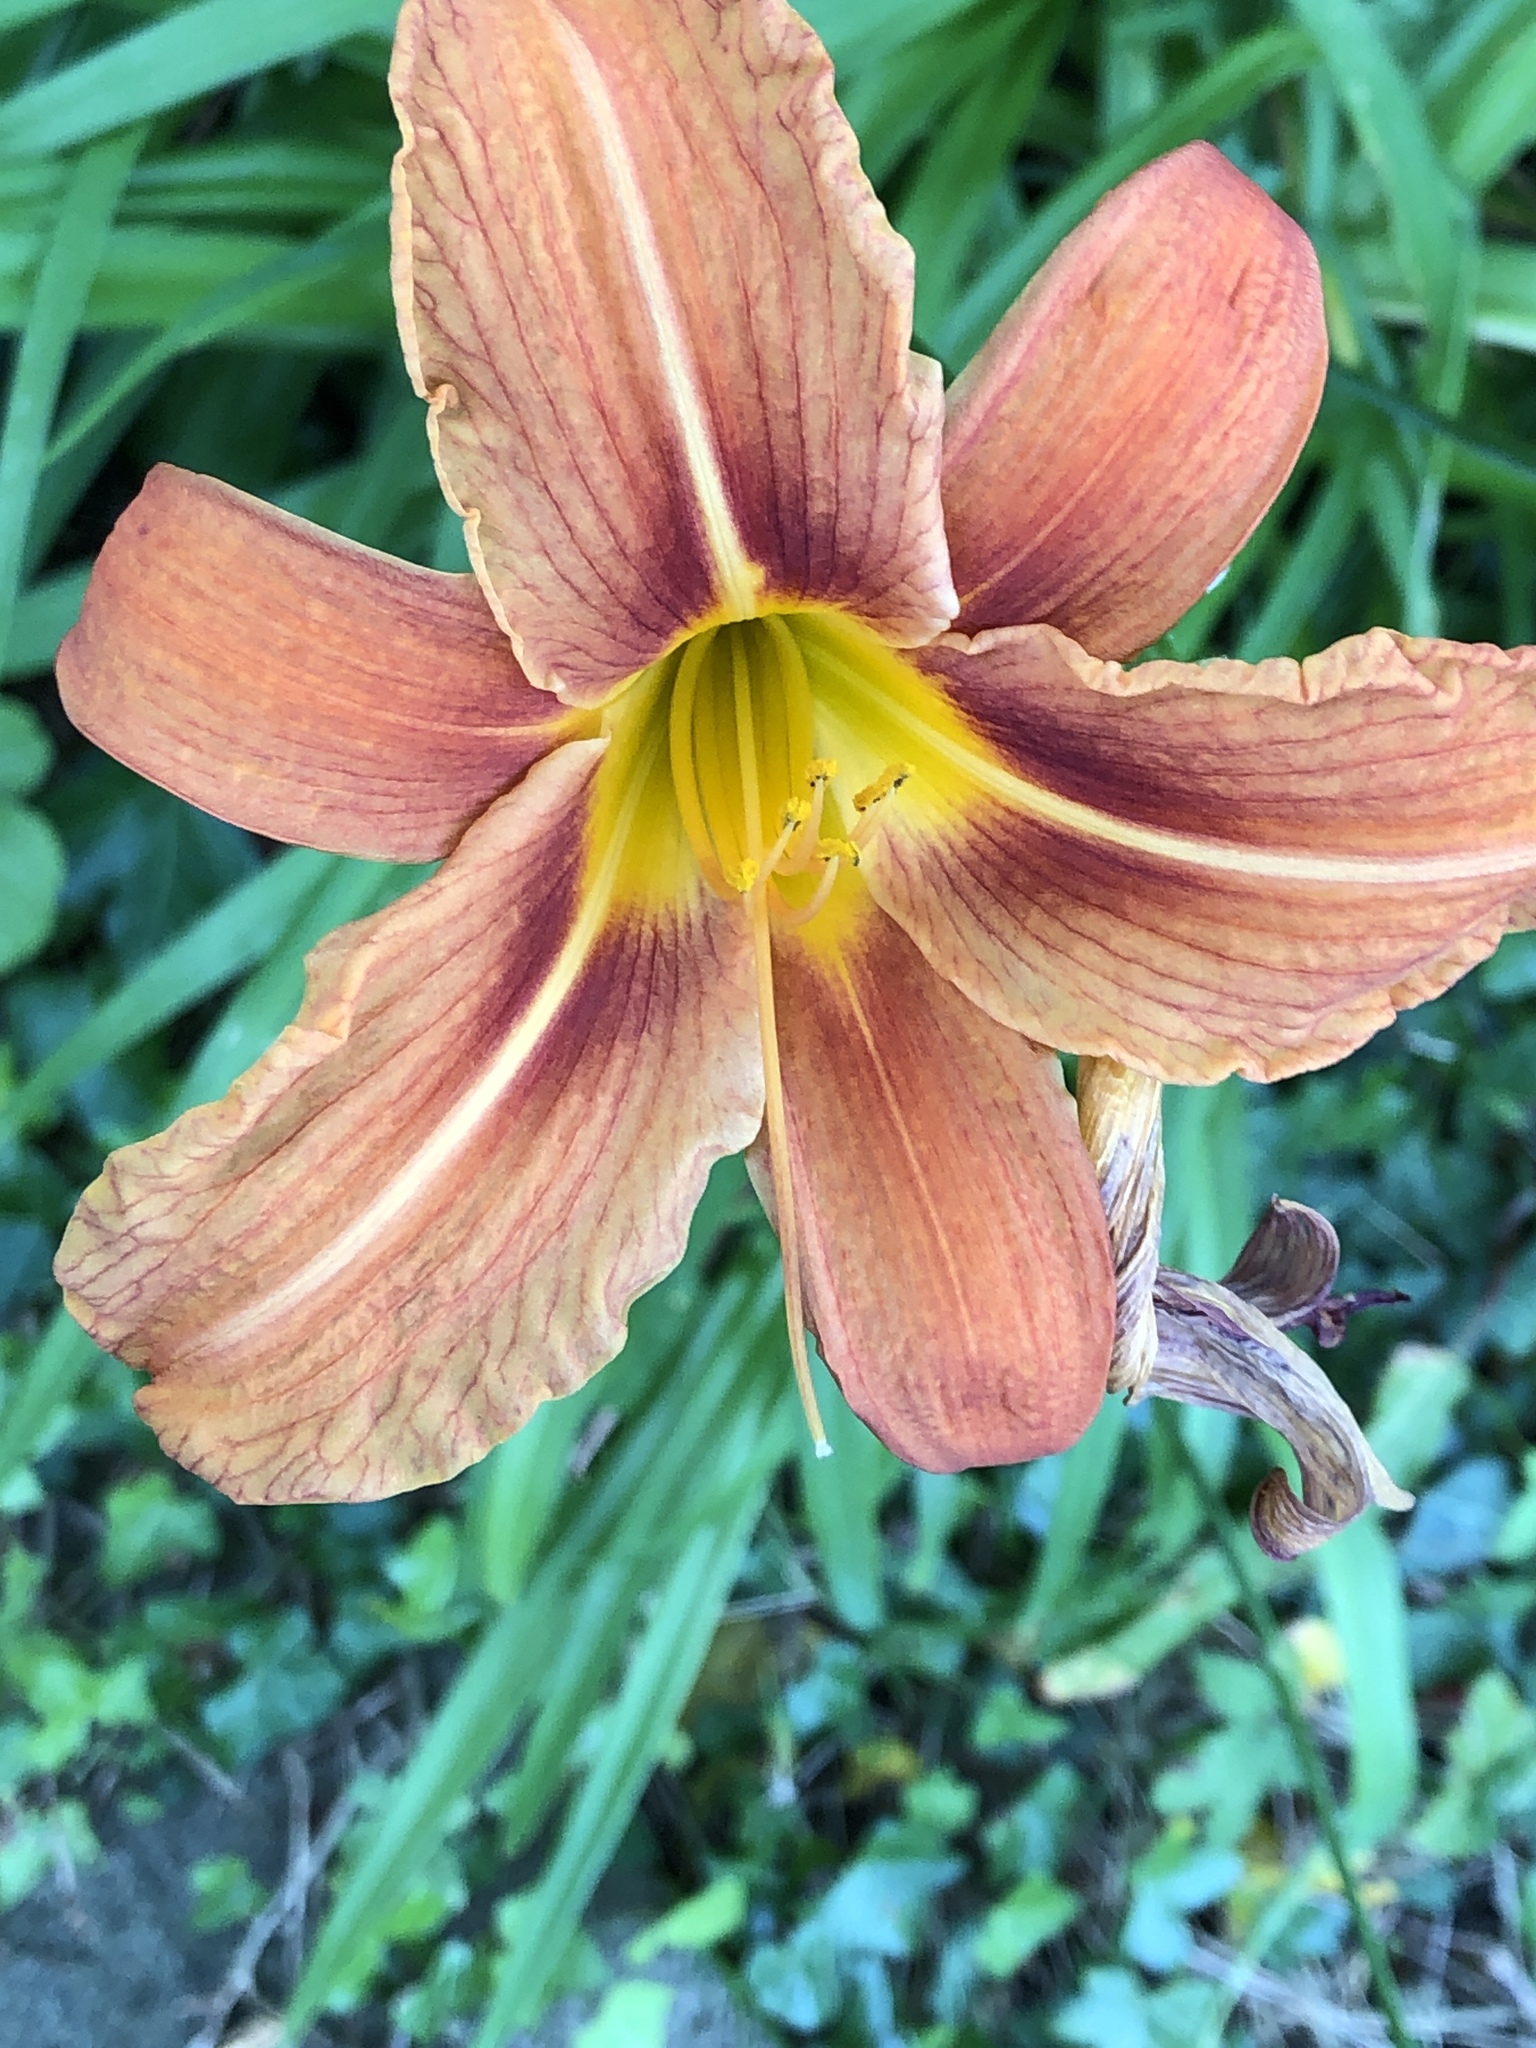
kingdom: Plantae
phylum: Tracheophyta
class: Liliopsida
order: Asparagales
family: Asphodelaceae
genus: Hemerocallis
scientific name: Hemerocallis fulva
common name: Orange day-lily
